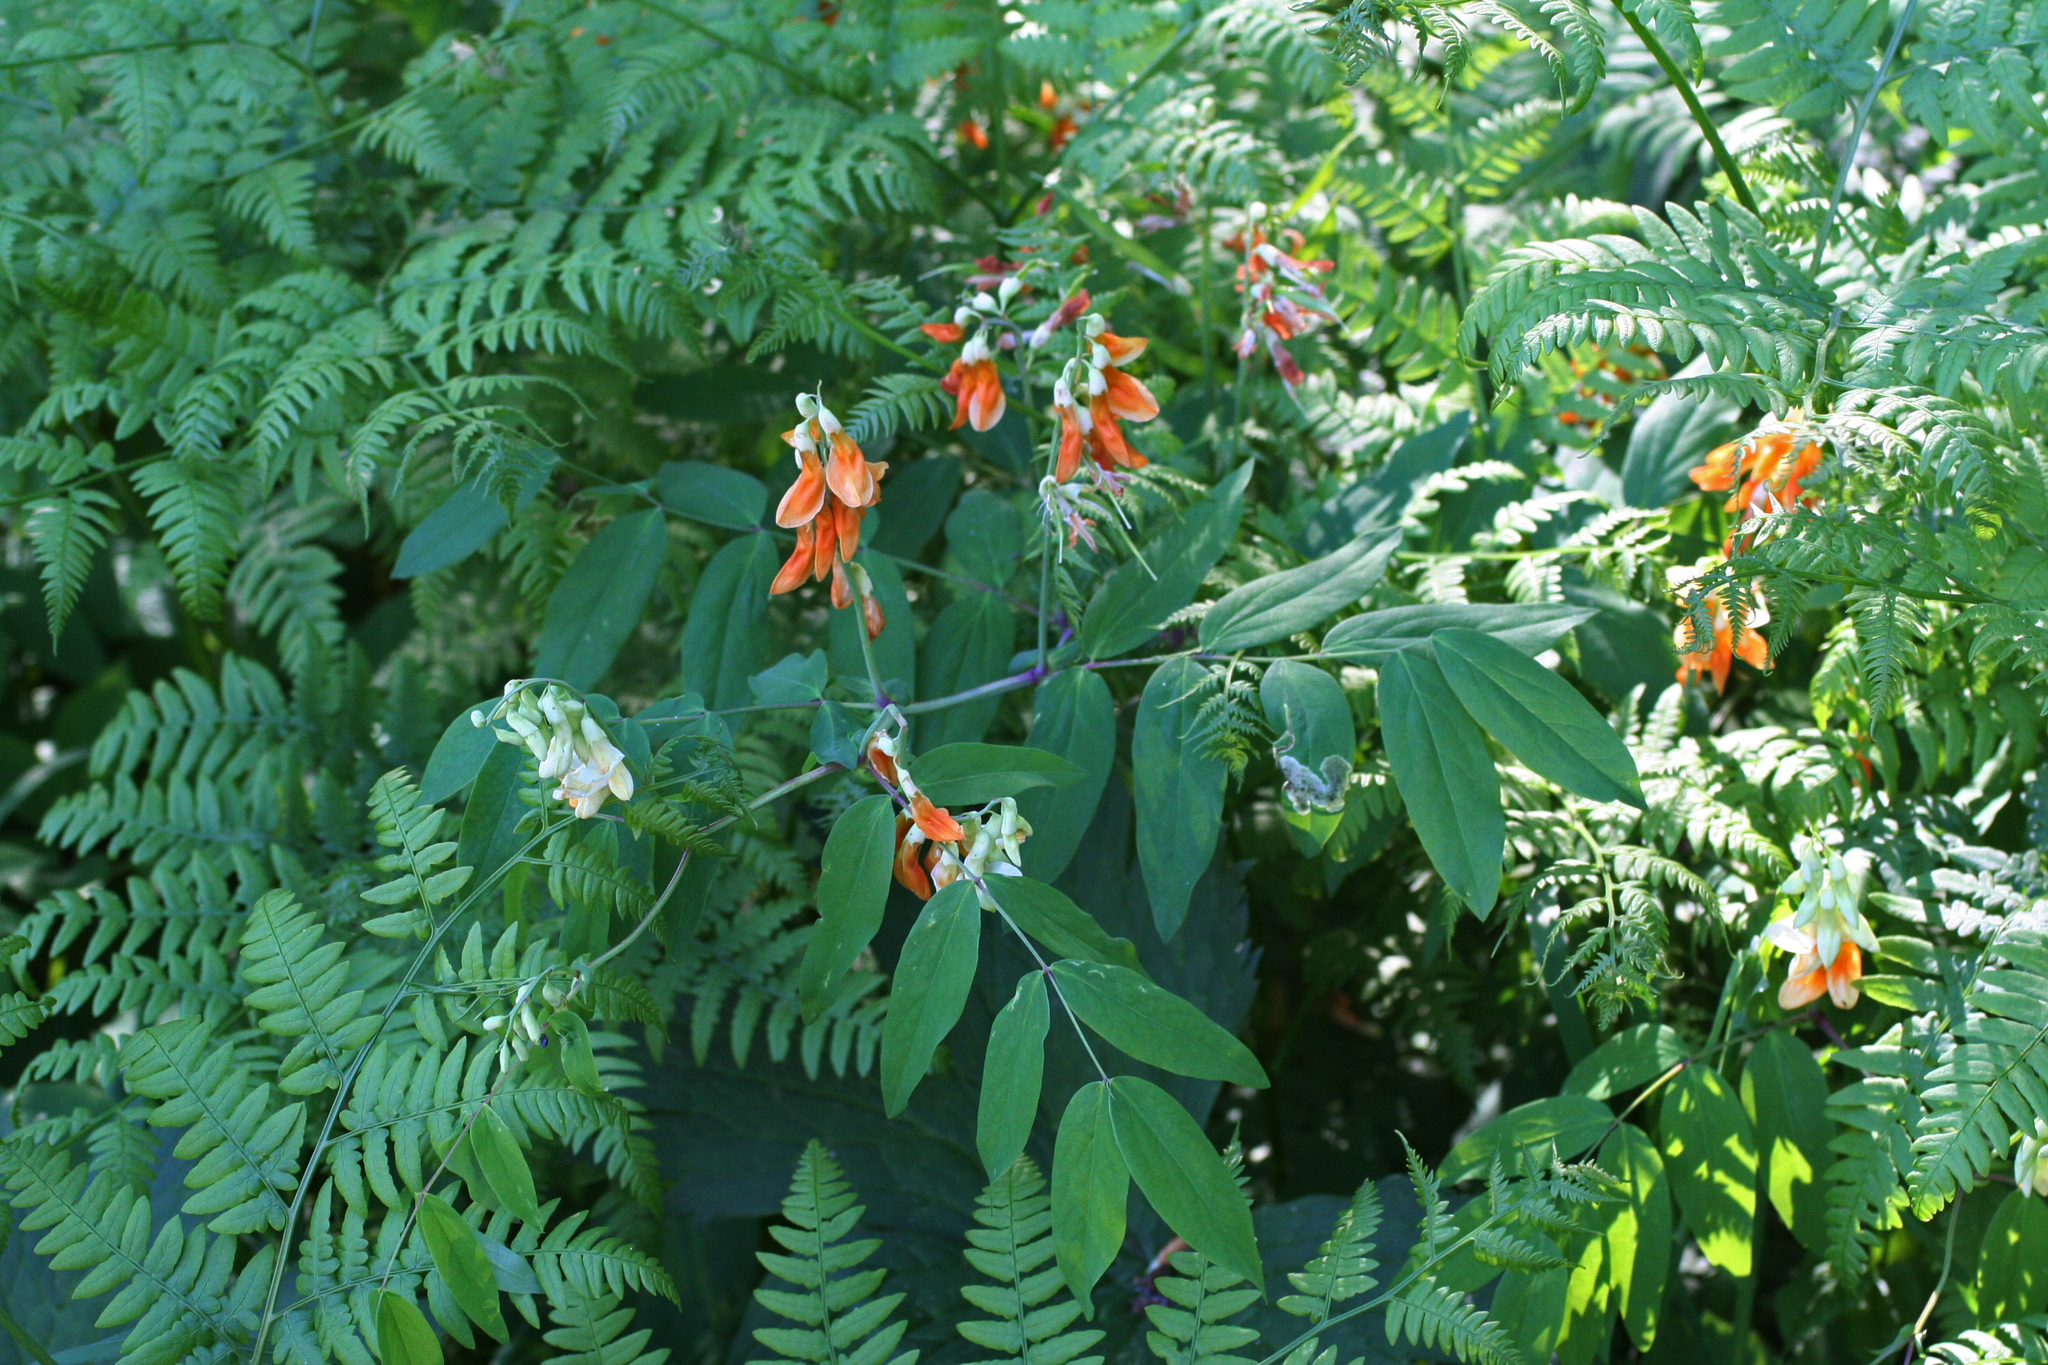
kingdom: Plantae
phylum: Tracheophyta
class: Magnoliopsida
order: Fabales
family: Fabaceae
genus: Lathyrus
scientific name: Lathyrus gmelinii
